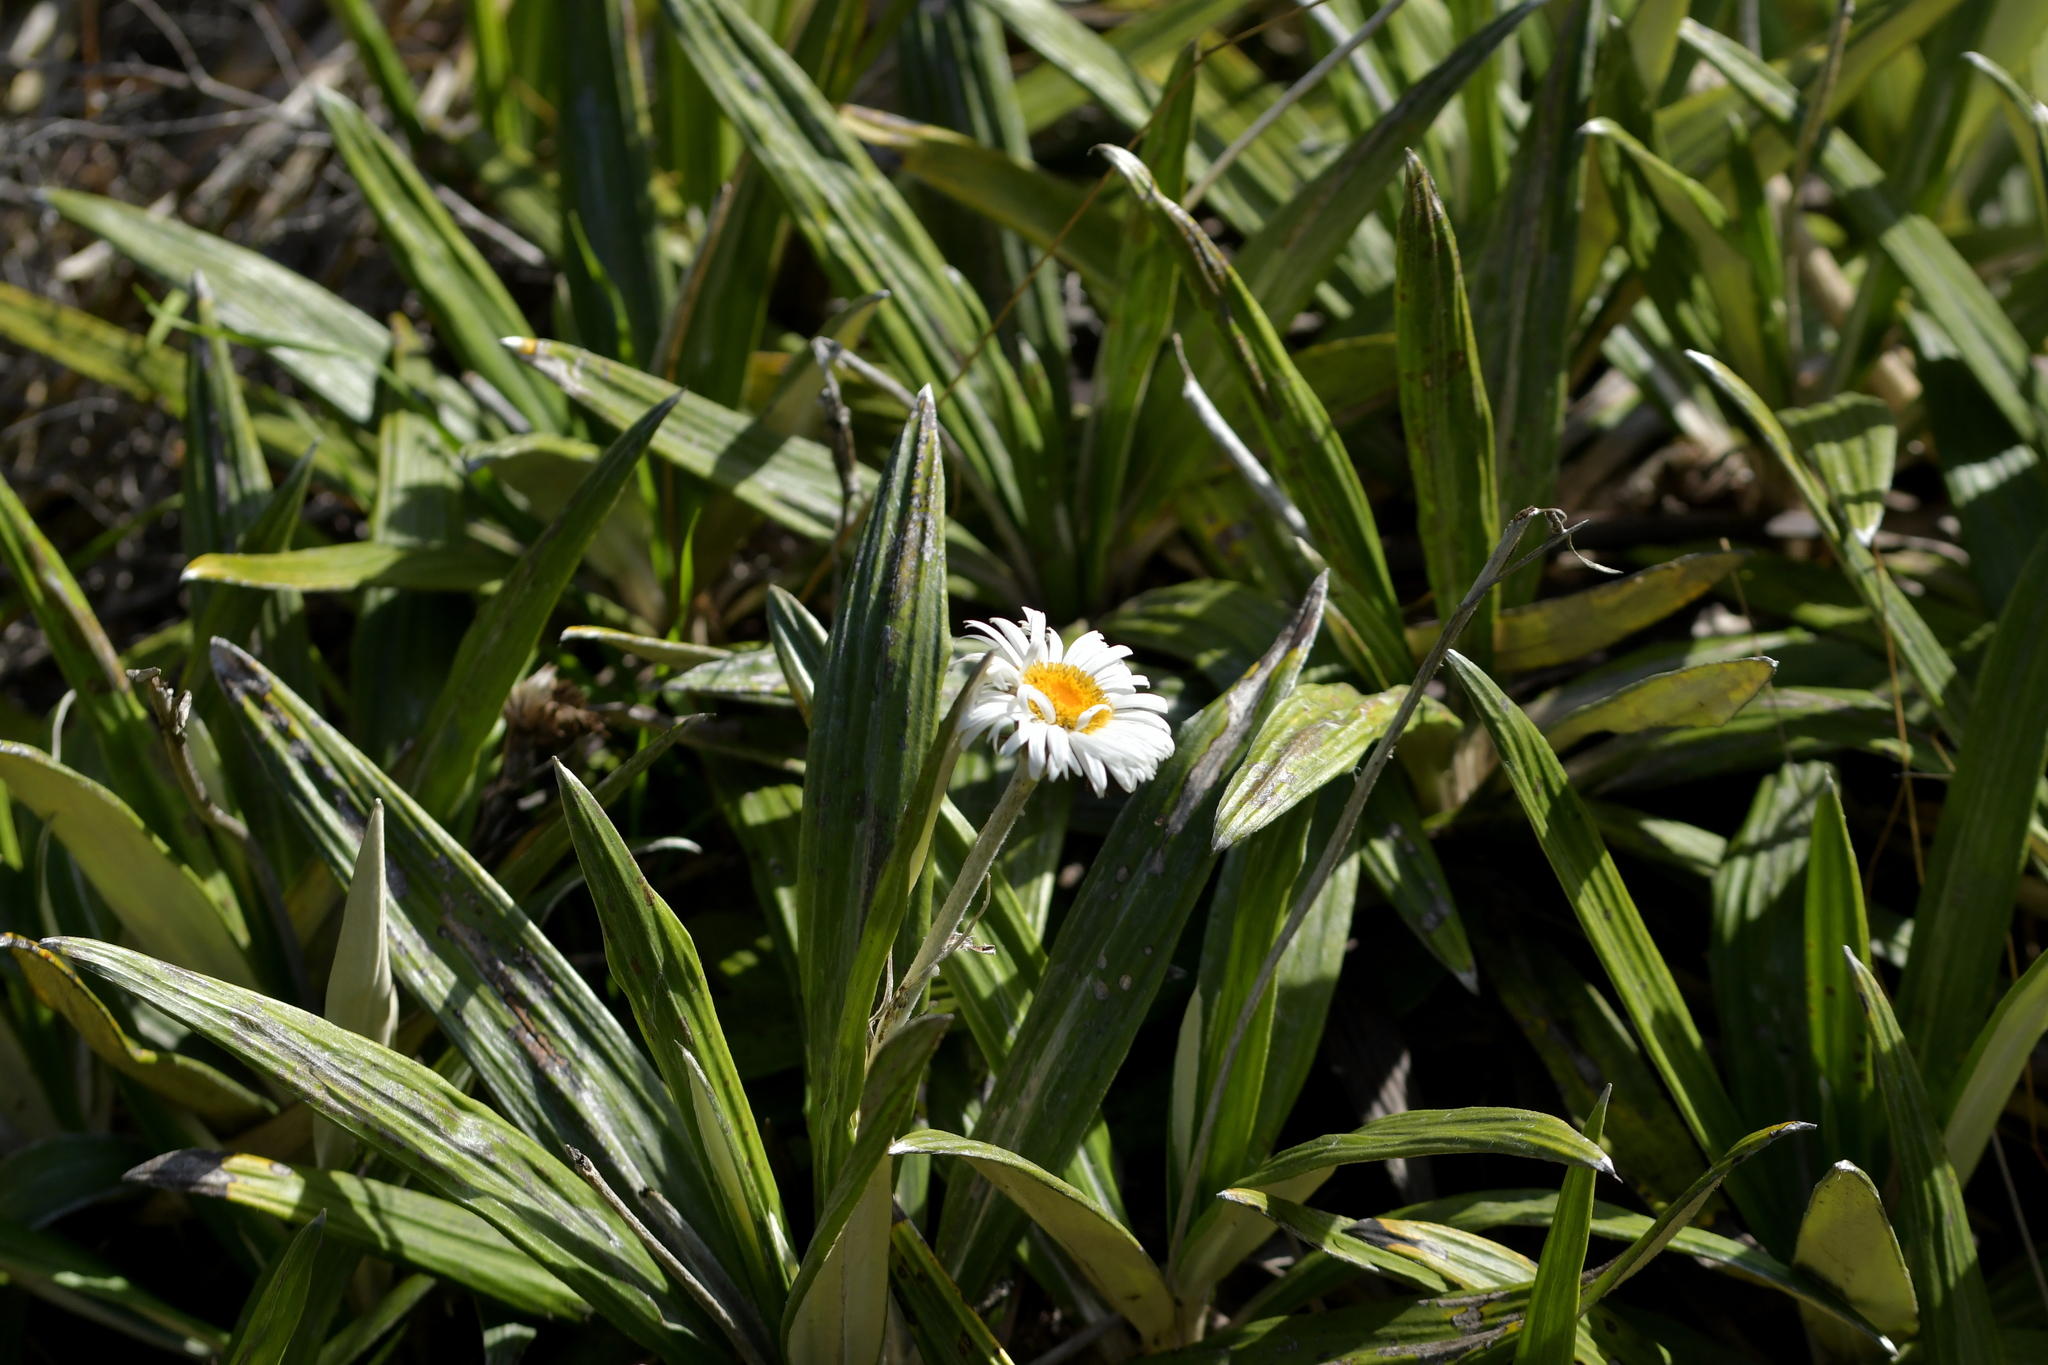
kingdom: Plantae
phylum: Tracheophyta
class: Magnoliopsida
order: Asterales
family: Asteraceae
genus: Celmisia
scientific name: Celmisia spectabilis
